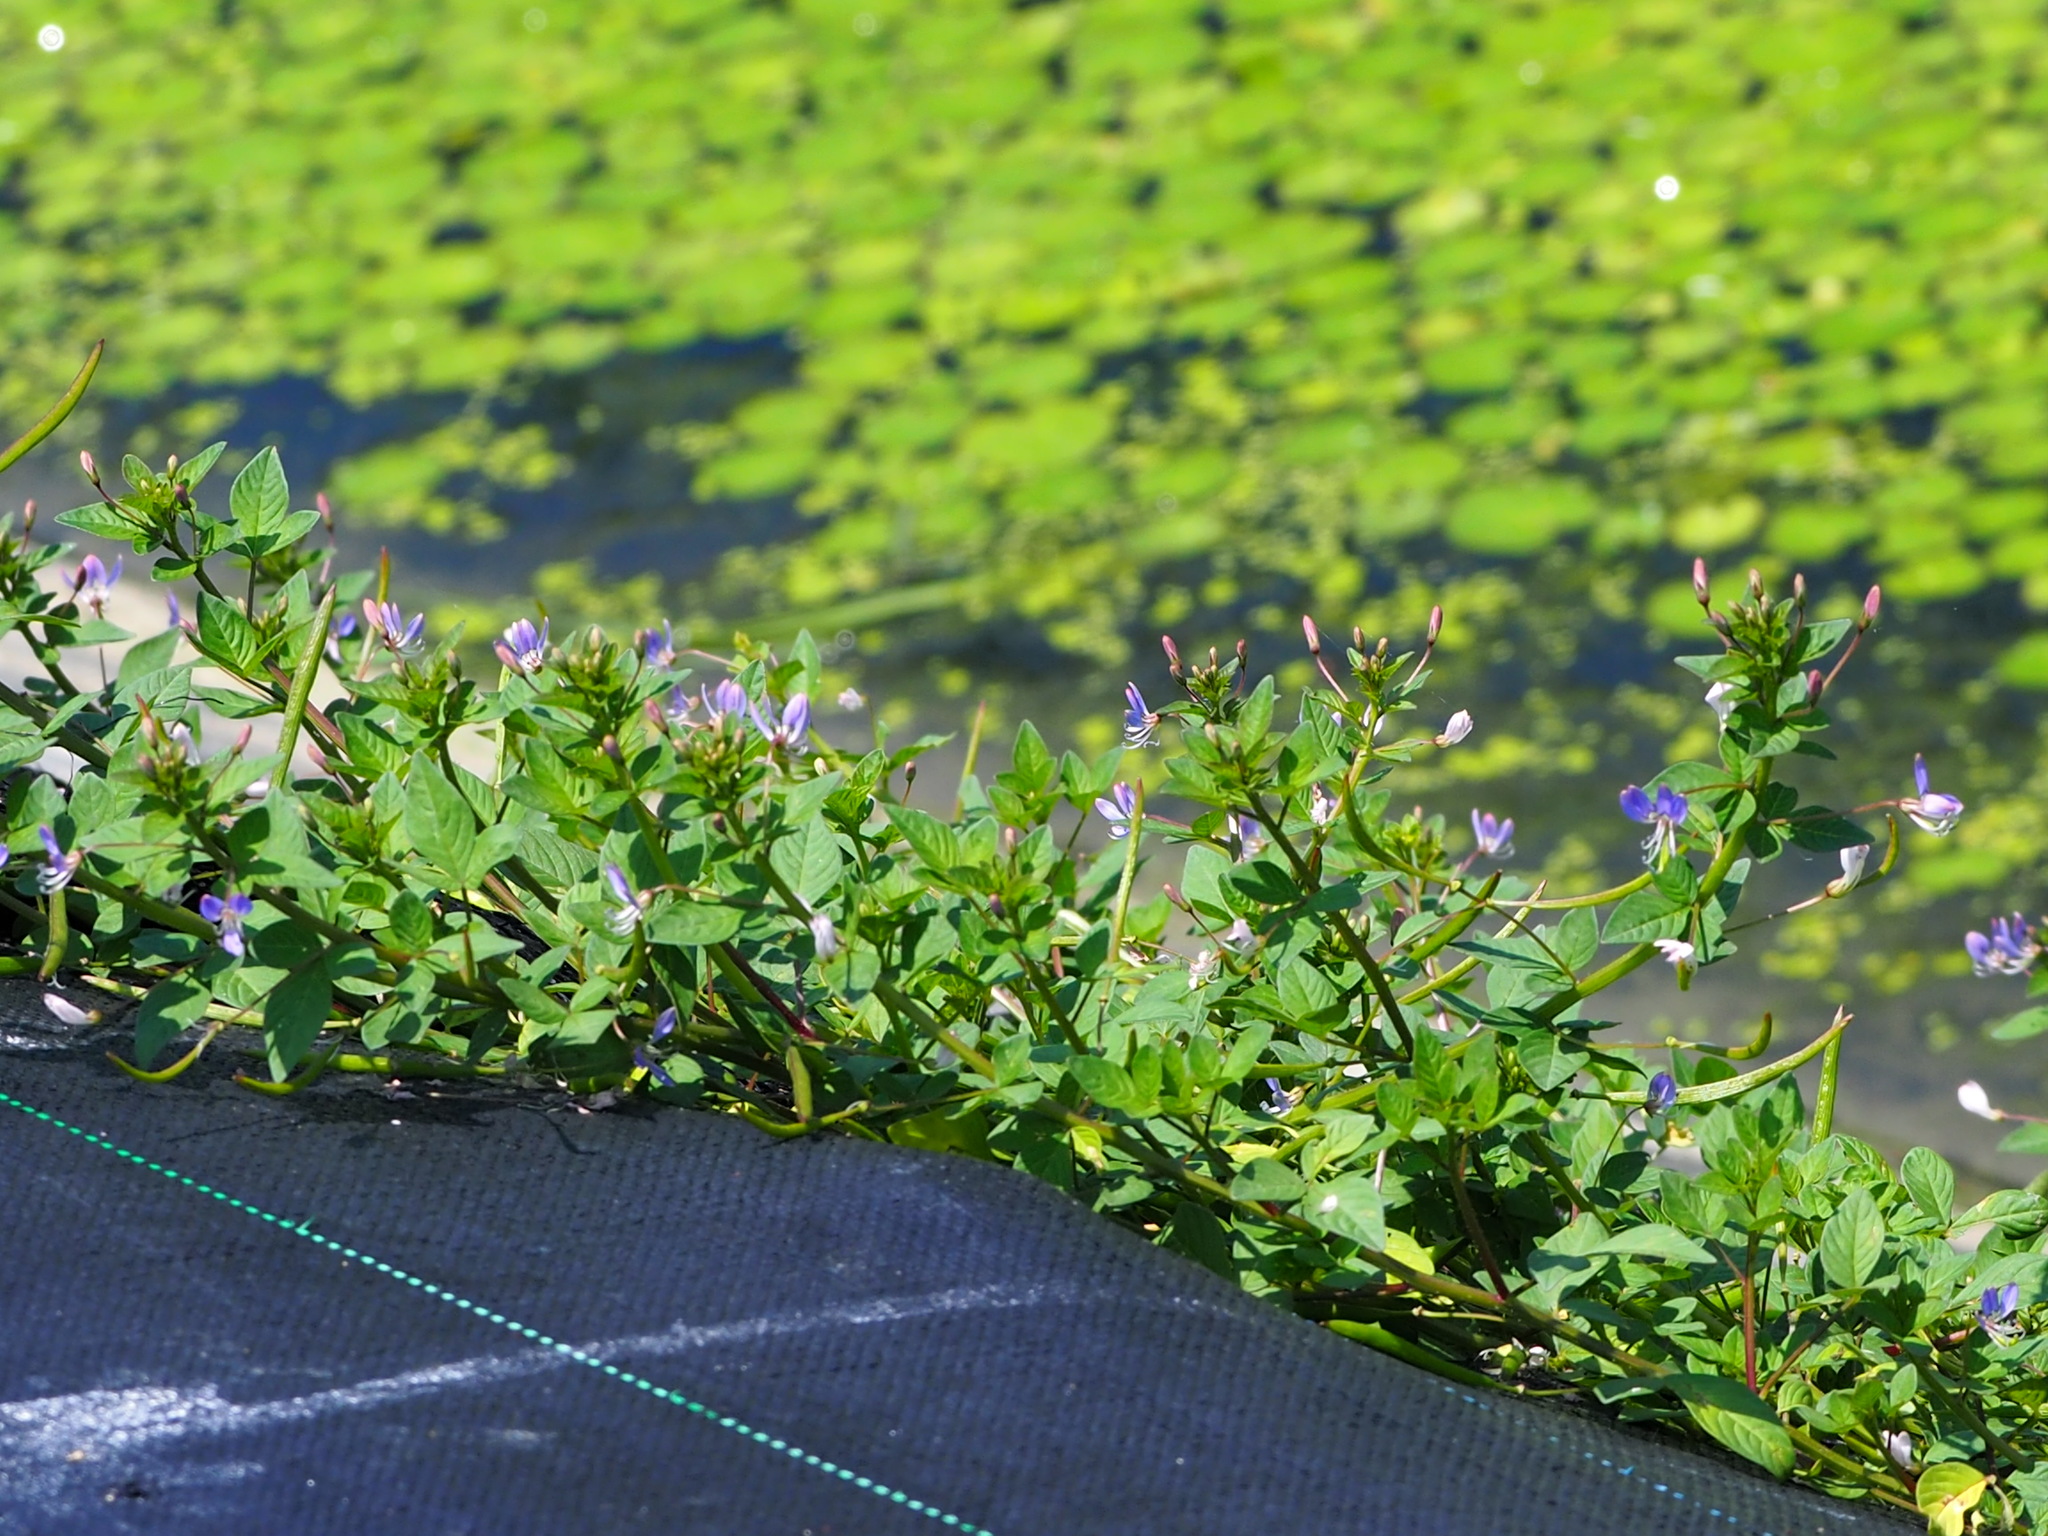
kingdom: Plantae
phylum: Tracheophyta
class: Magnoliopsida
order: Brassicales
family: Cleomaceae
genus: Sieruela
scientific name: Sieruela rutidosperma
